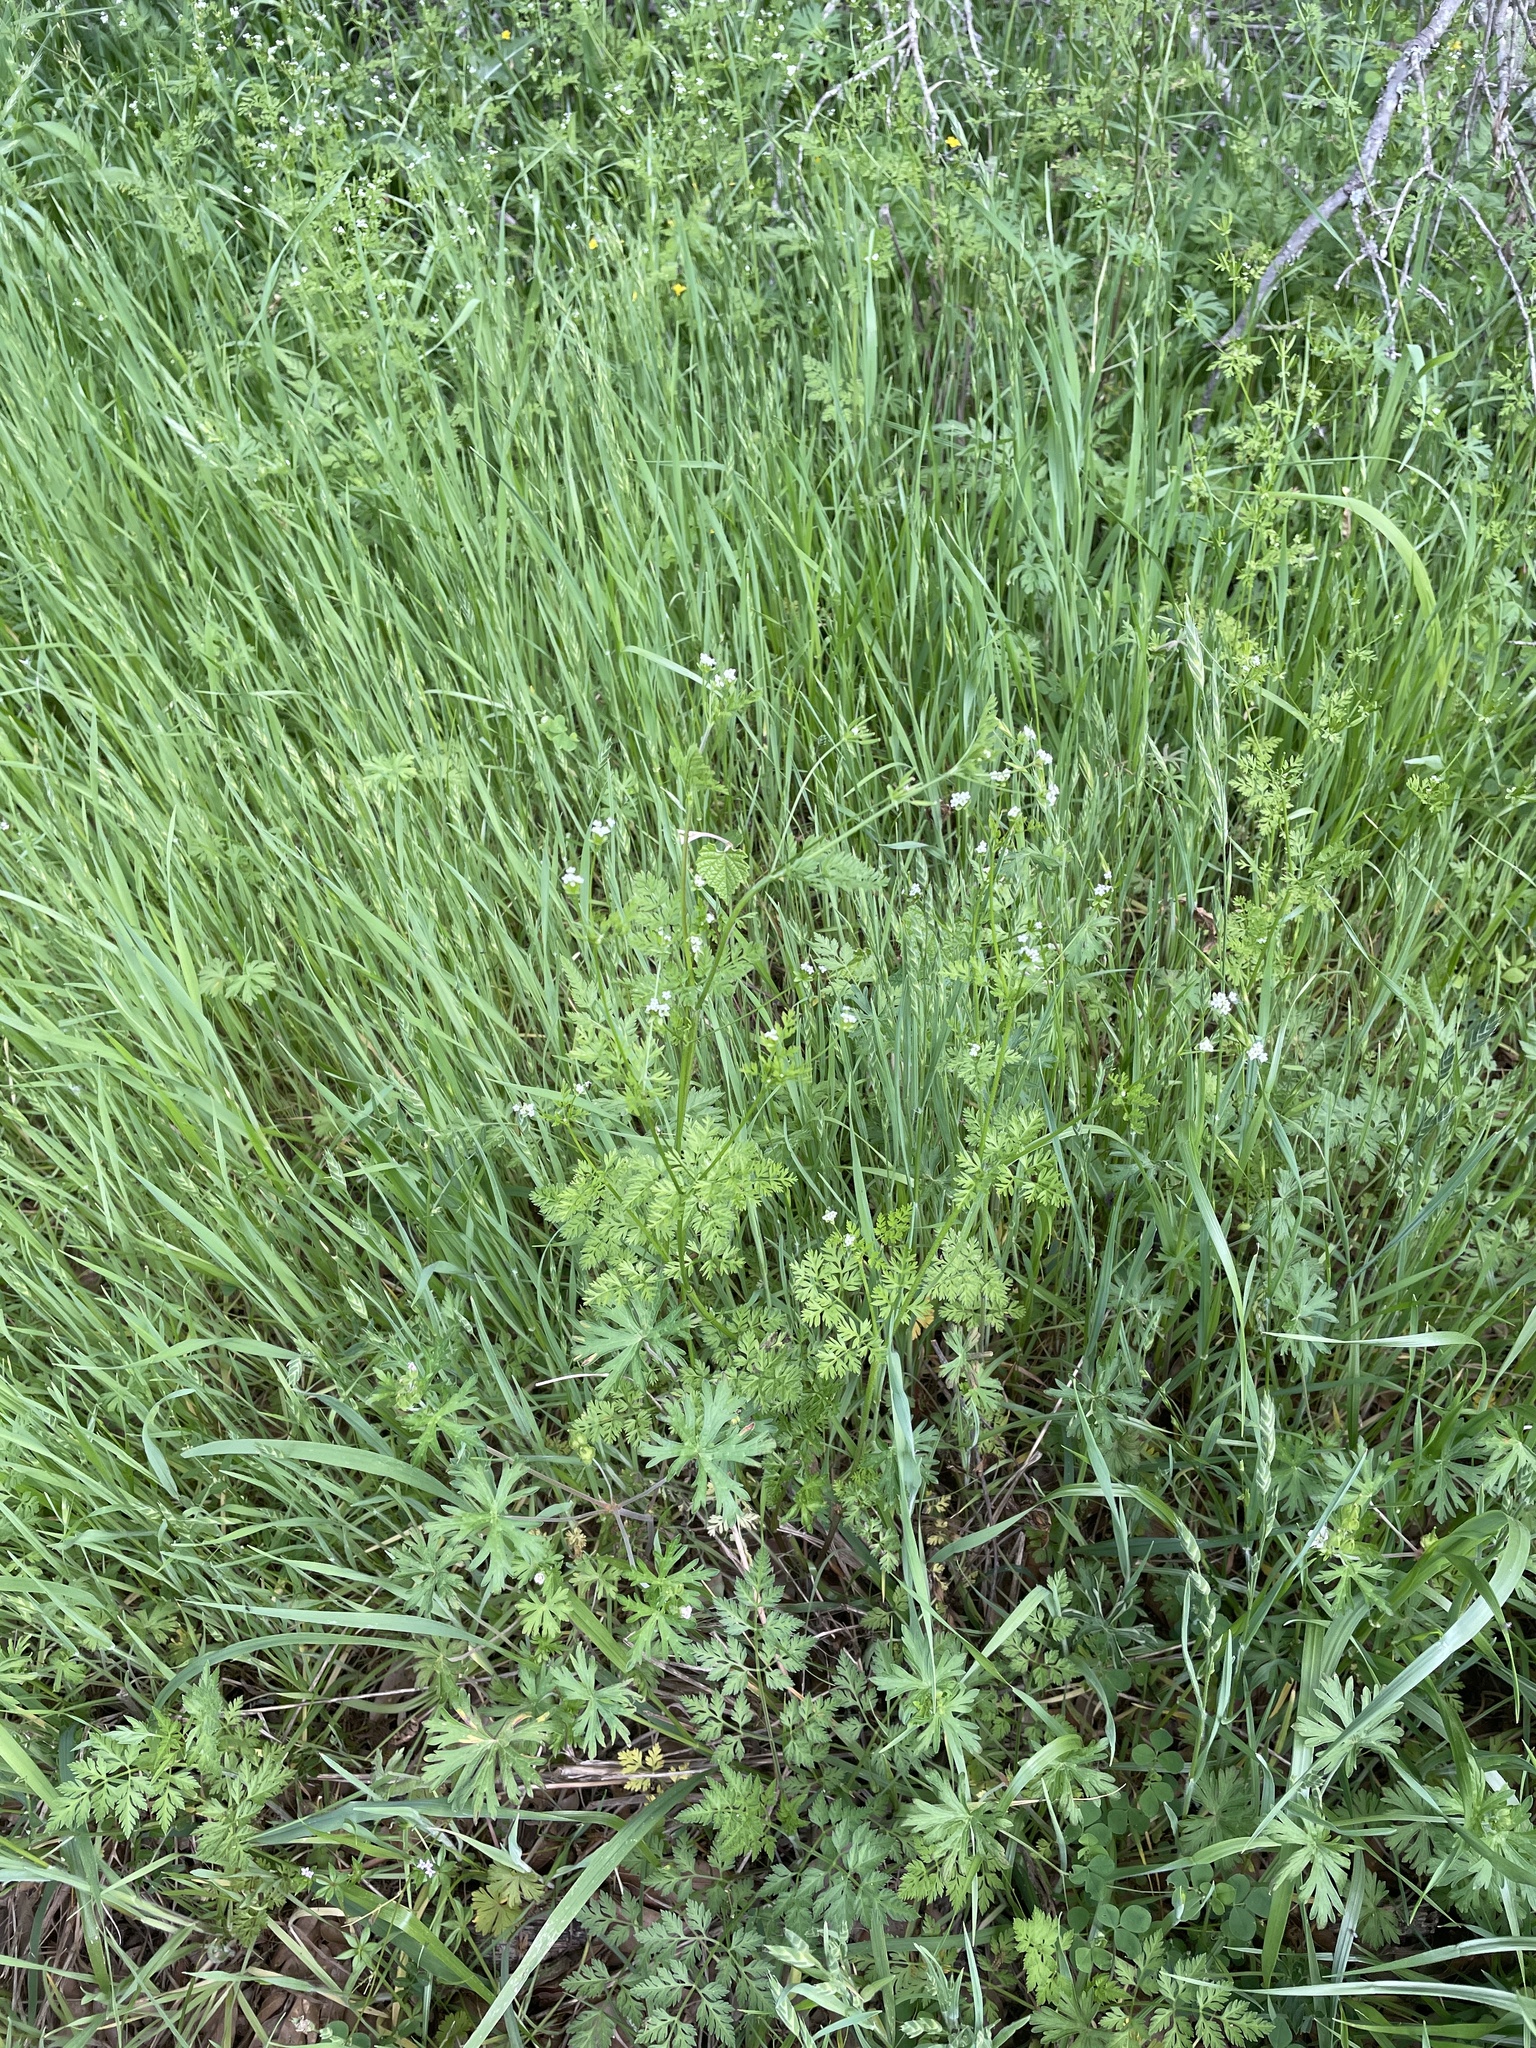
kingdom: Plantae
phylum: Tracheophyta
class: Magnoliopsida
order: Apiales
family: Apiaceae
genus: Chaerophyllum
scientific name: Chaerophyllum tainturieri
